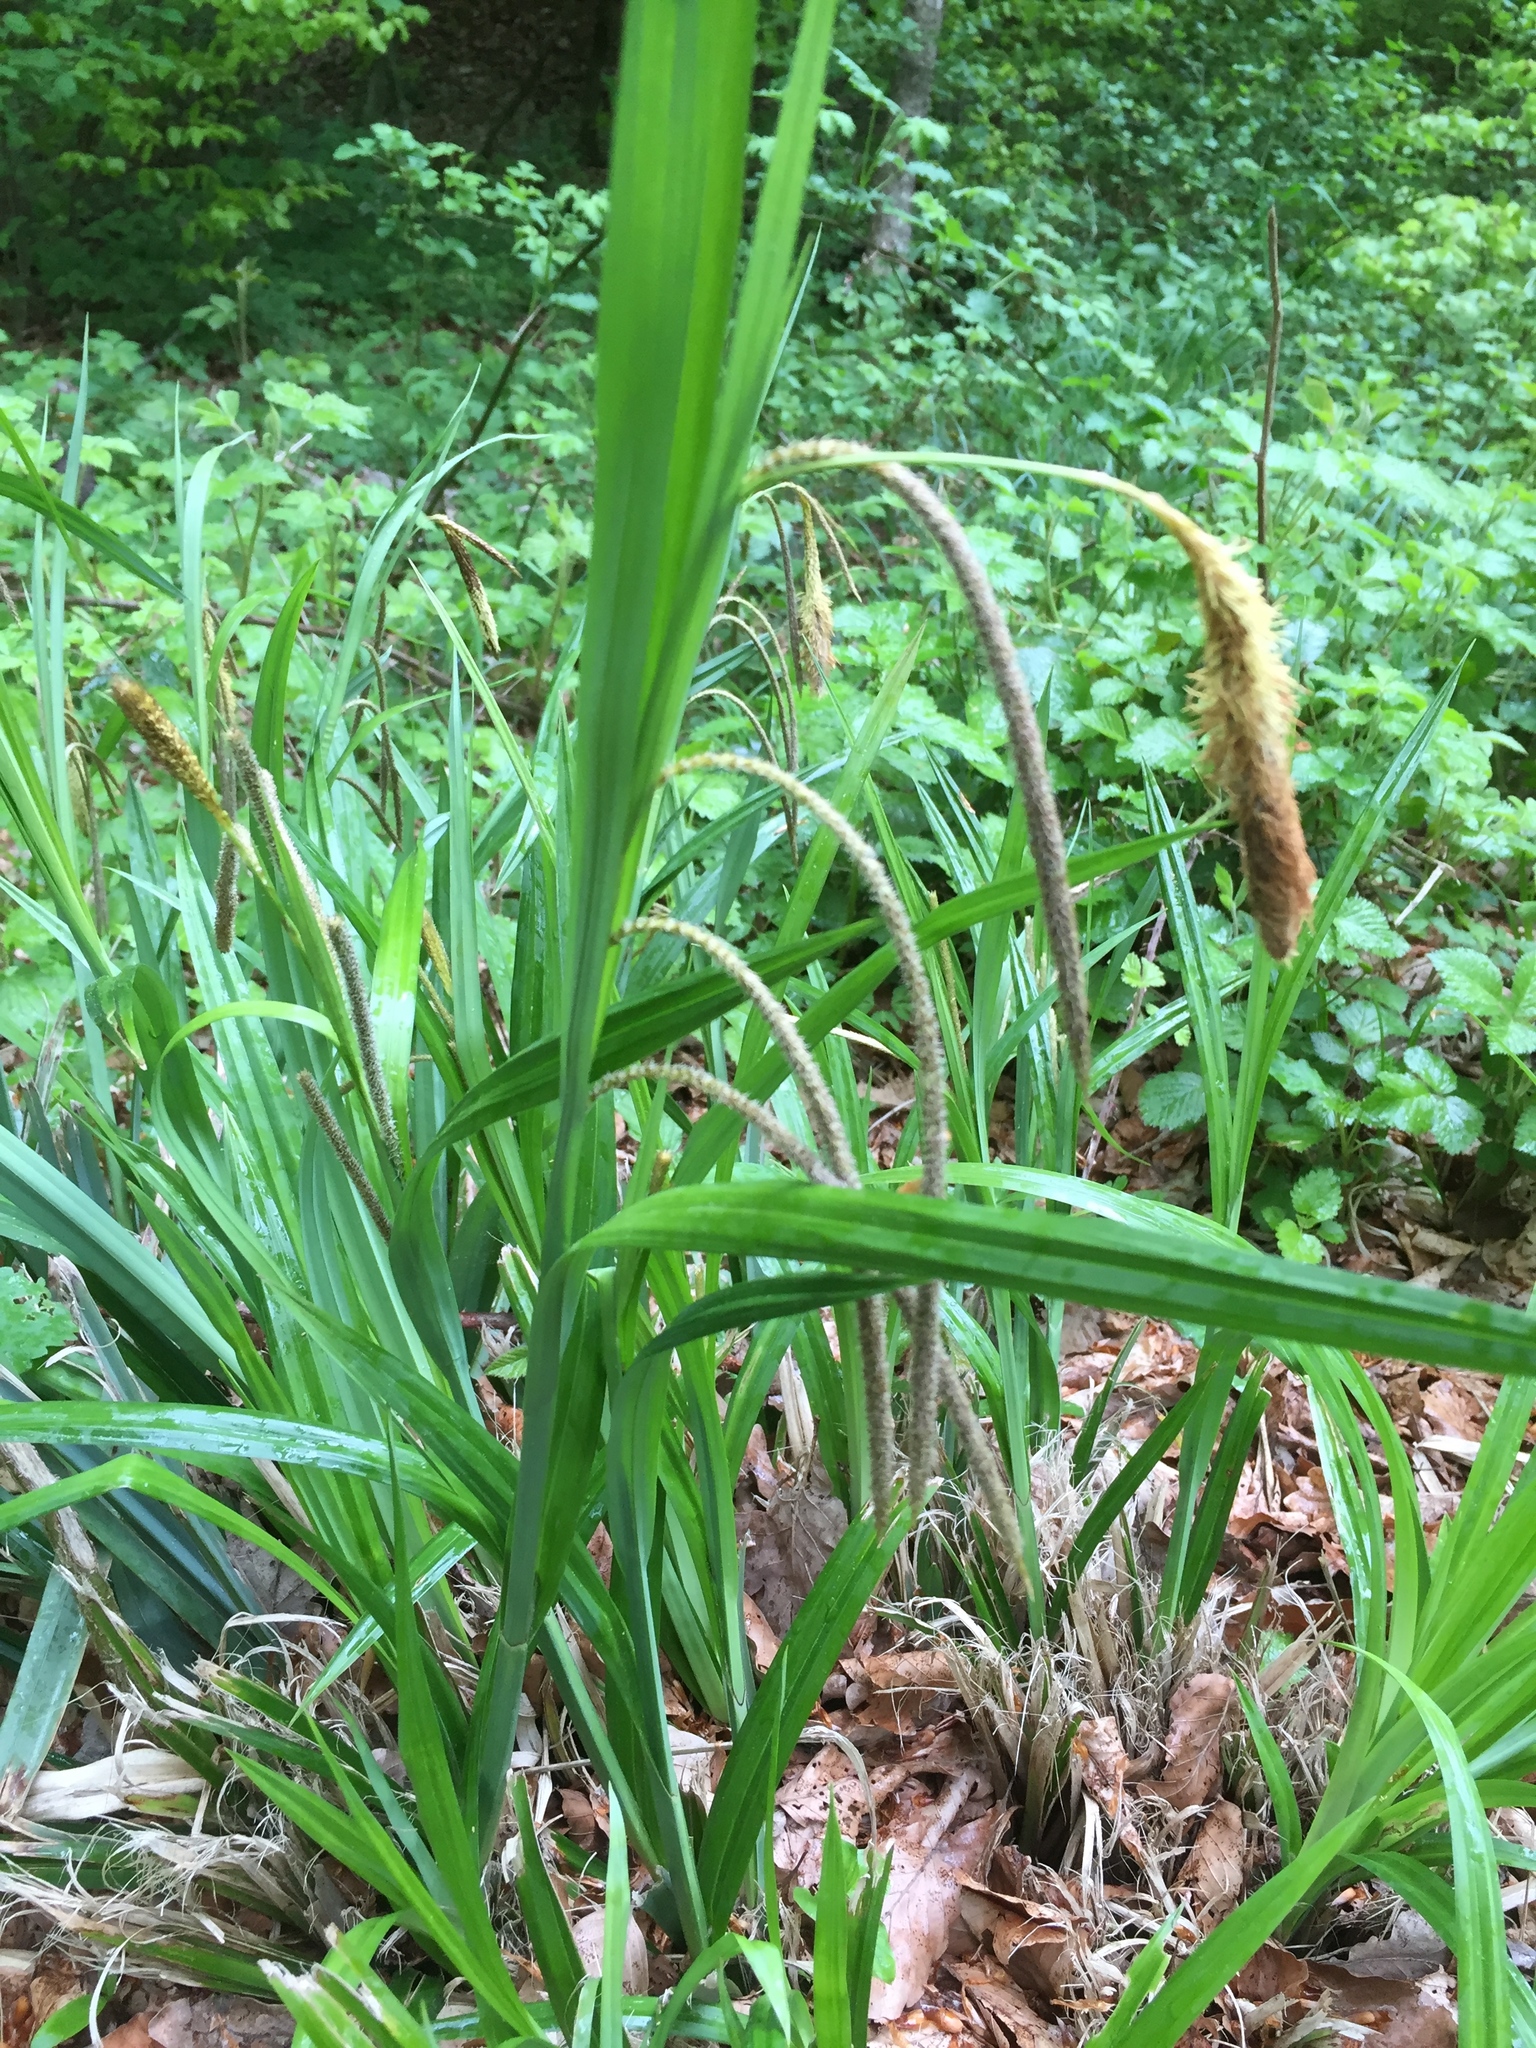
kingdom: Plantae
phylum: Tracheophyta
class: Liliopsida
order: Poales
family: Cyperaceae
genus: Carex
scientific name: Carex pendula
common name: Pendulous sedge
